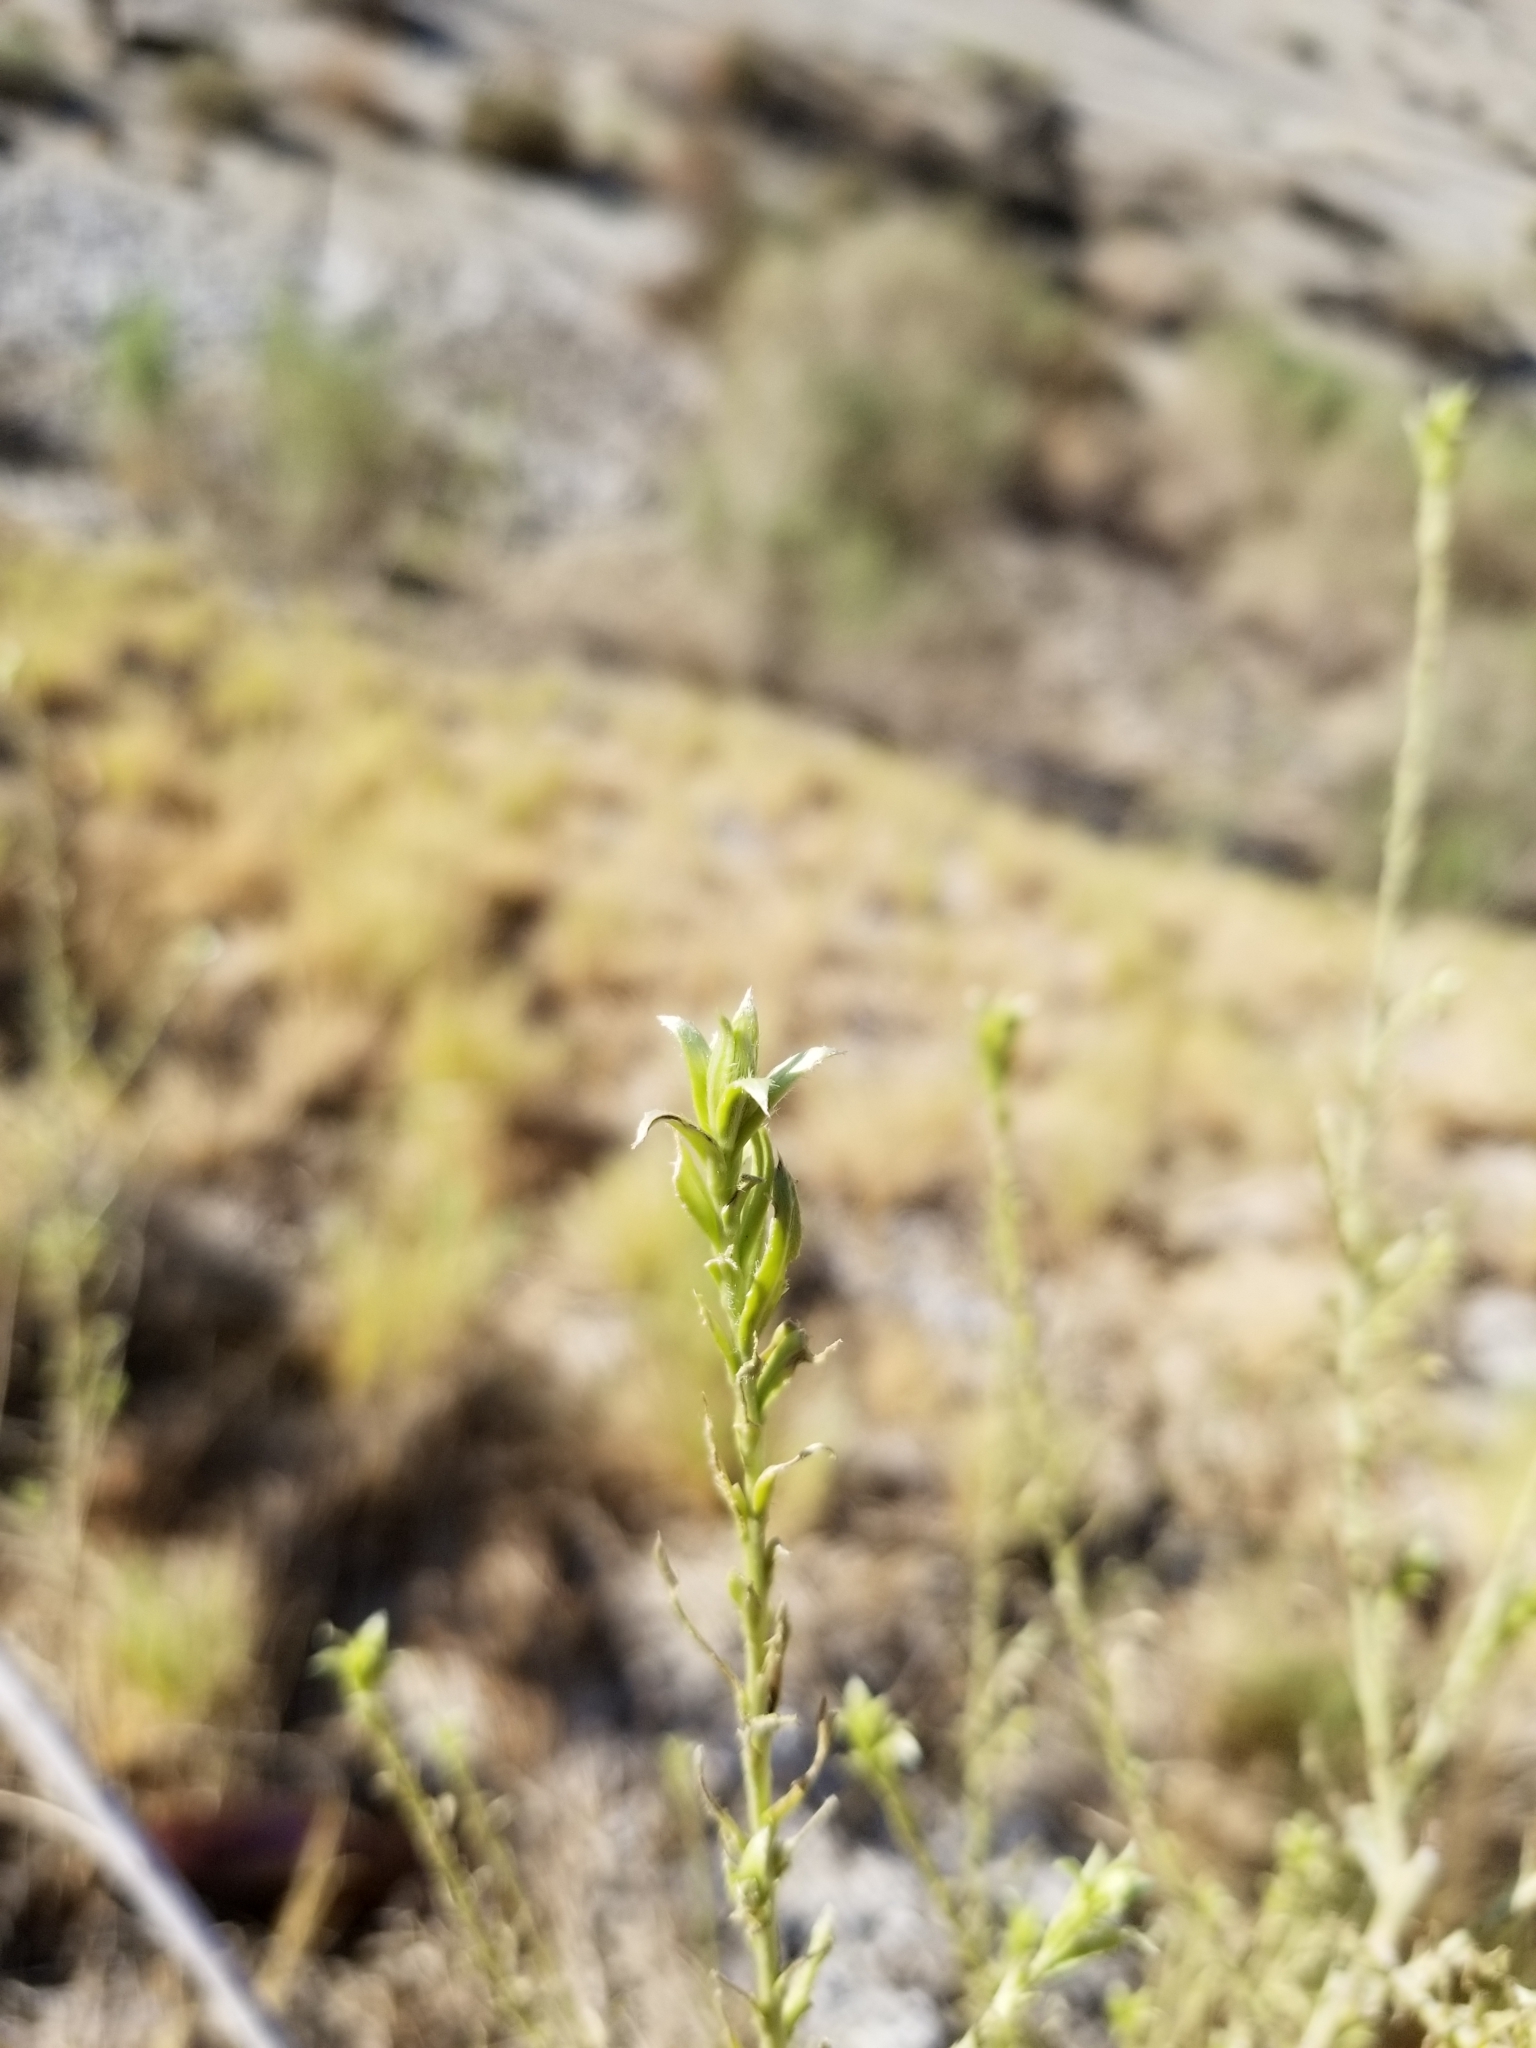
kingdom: Plantae
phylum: Tracheophyta
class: Magnoliopsida
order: Asterales
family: Asteraceae
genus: Pluchea
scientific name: Pluchea sericea
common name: Arrow-weed
